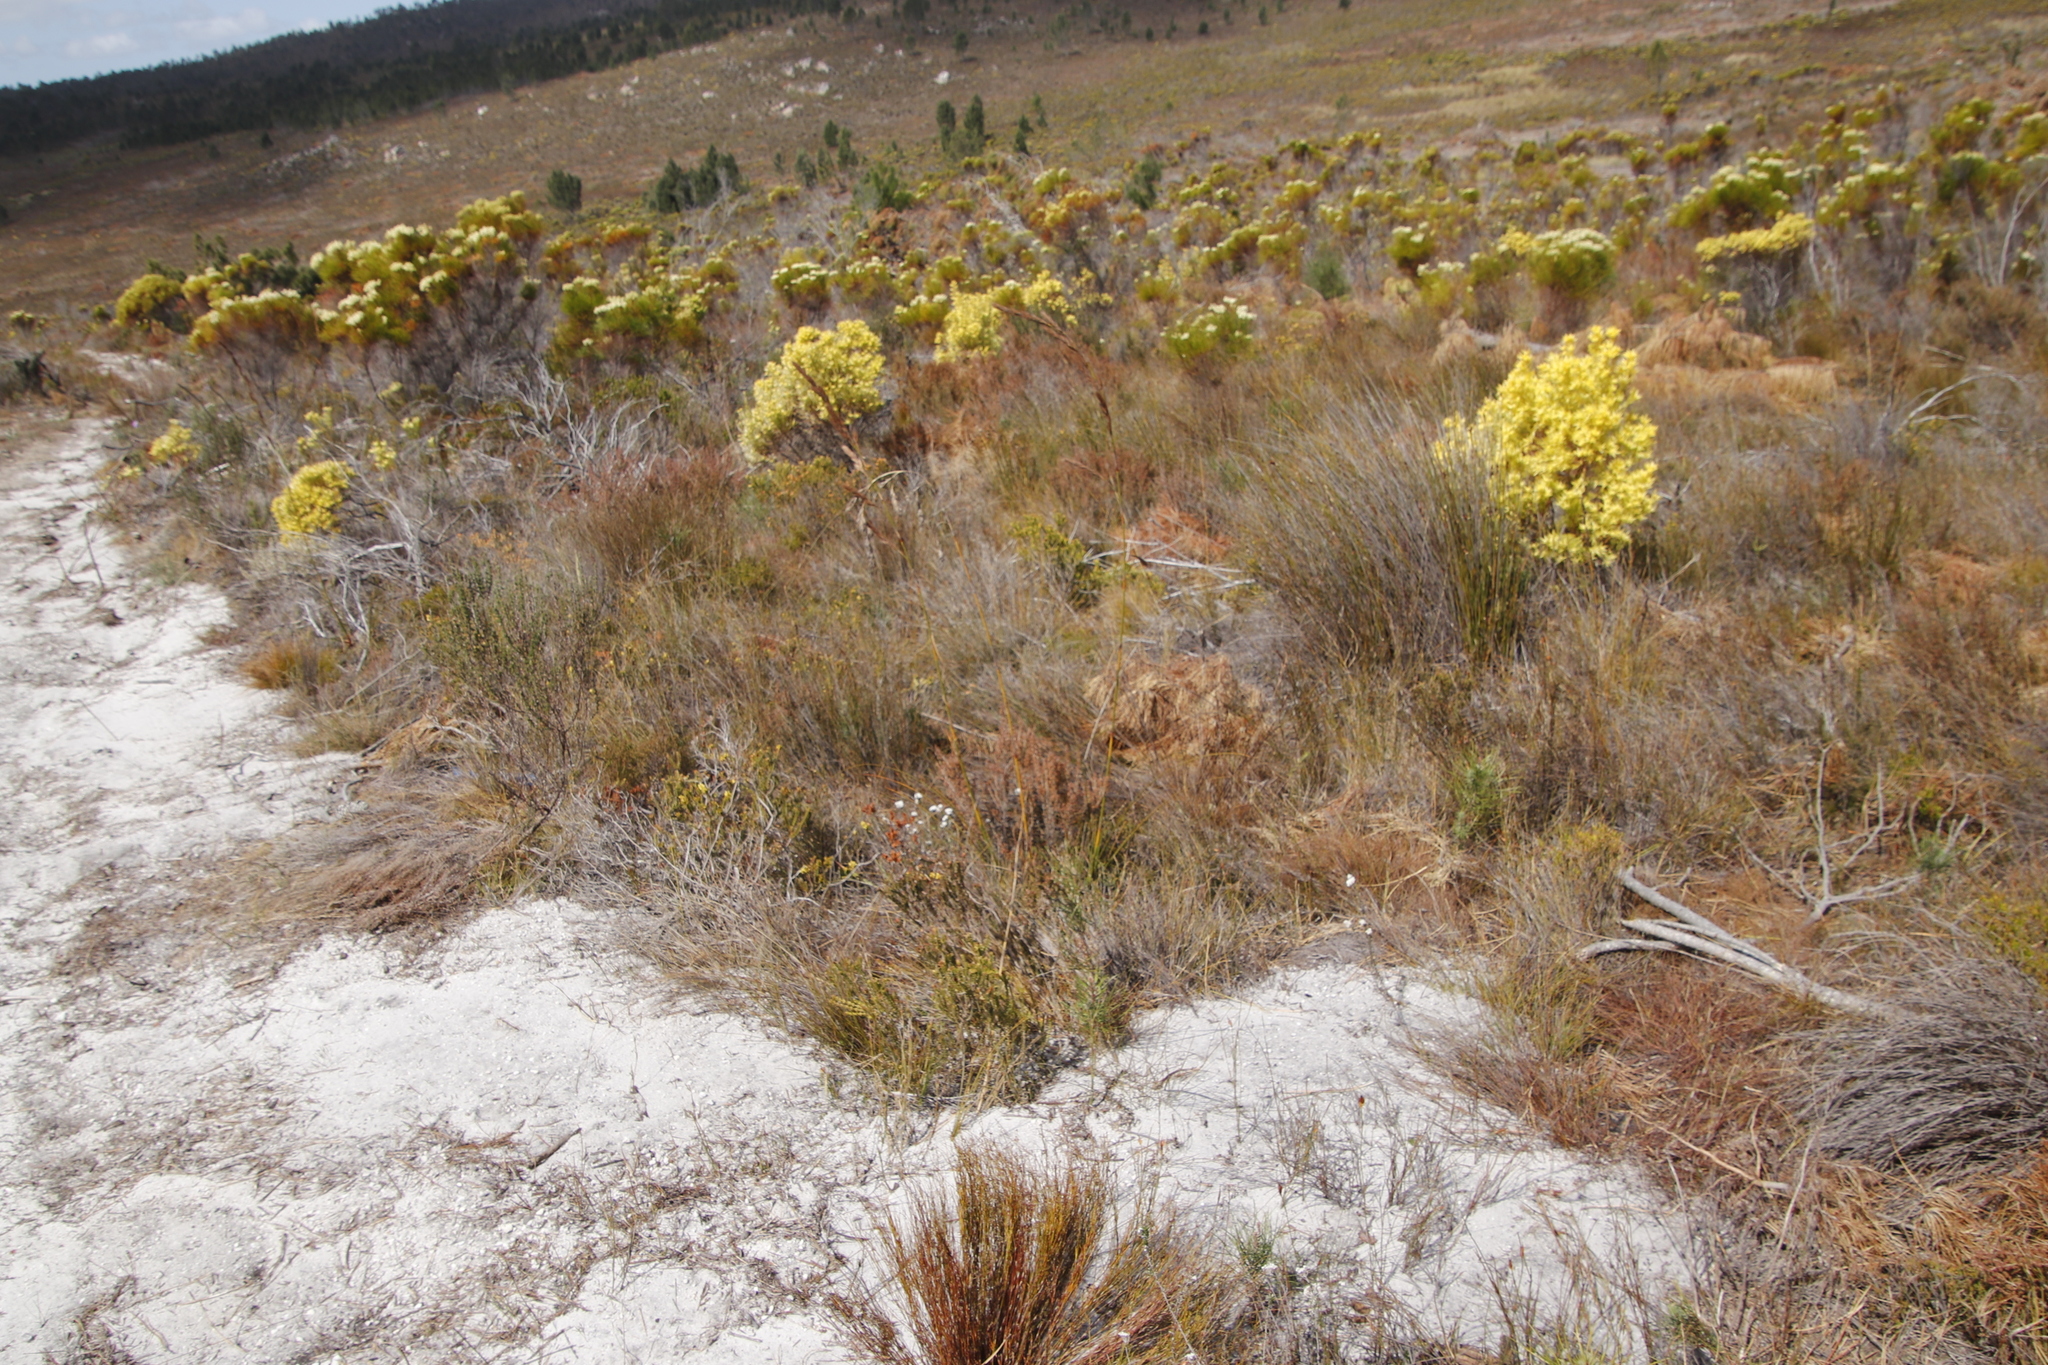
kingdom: Plantae
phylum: Tracheophyta
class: Magnoliopsida
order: Proteales
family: Proteaceae
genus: Leucadendron
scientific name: Leucadendron xanthoconus
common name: Sickle-leaf conebush
